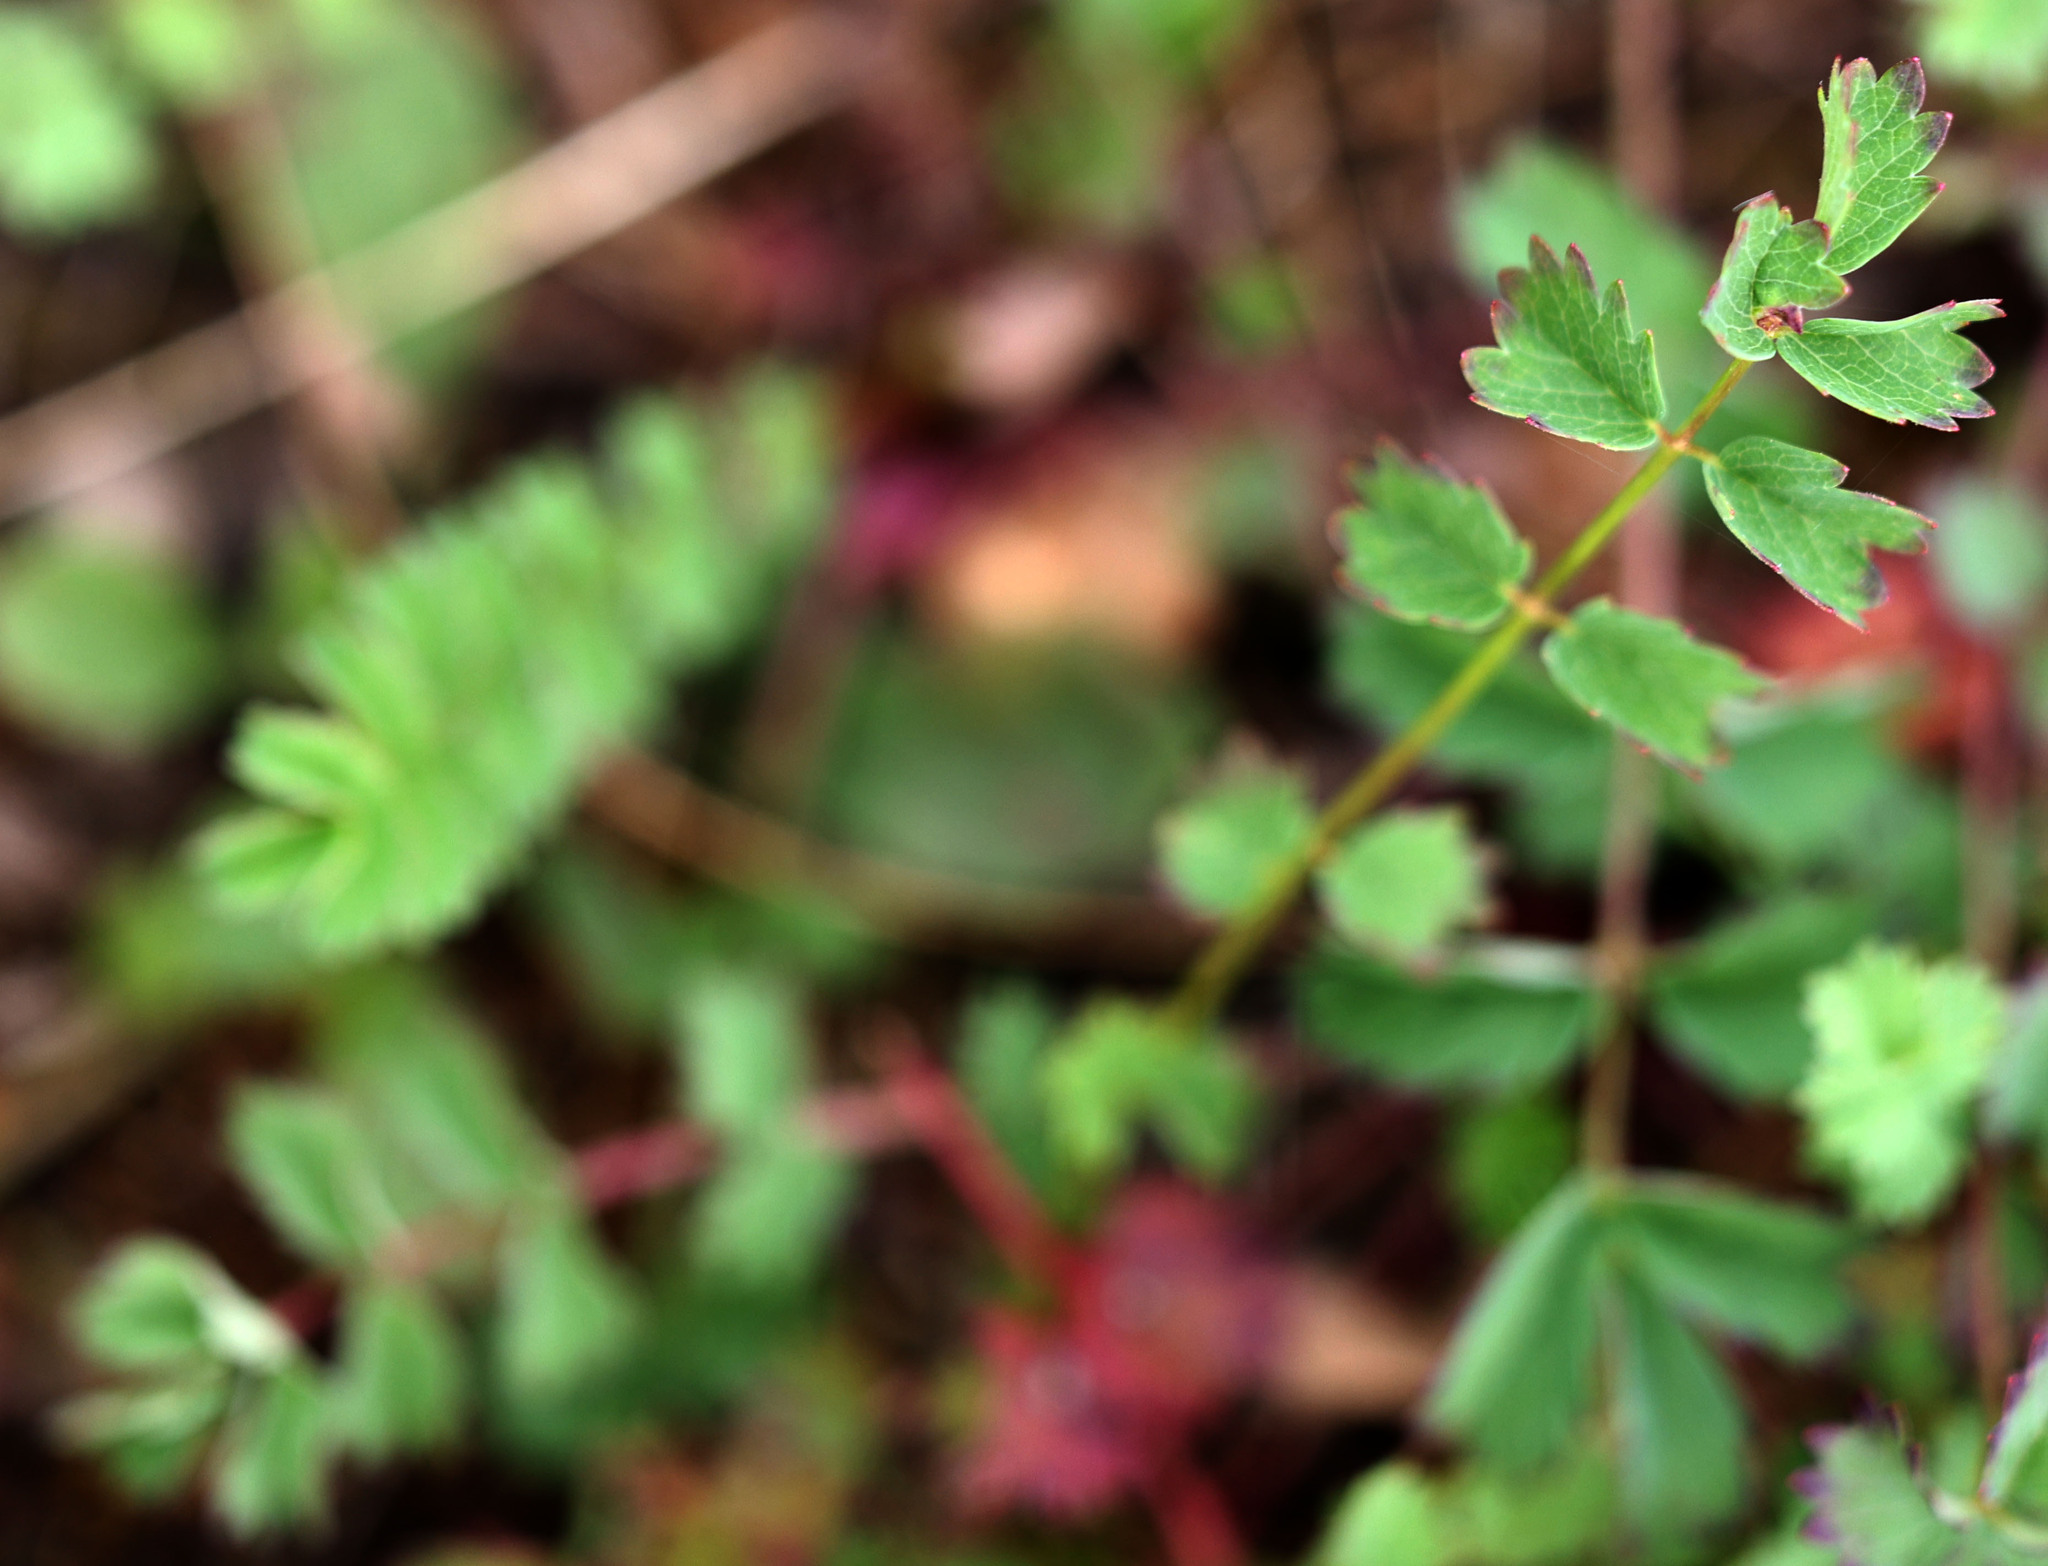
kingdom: Plantae
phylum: Tracheophyta
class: Magnoliopsida
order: Rosales
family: Rosaceae
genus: Poterium
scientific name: Poterium sanguisorba
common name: Salad burnet
